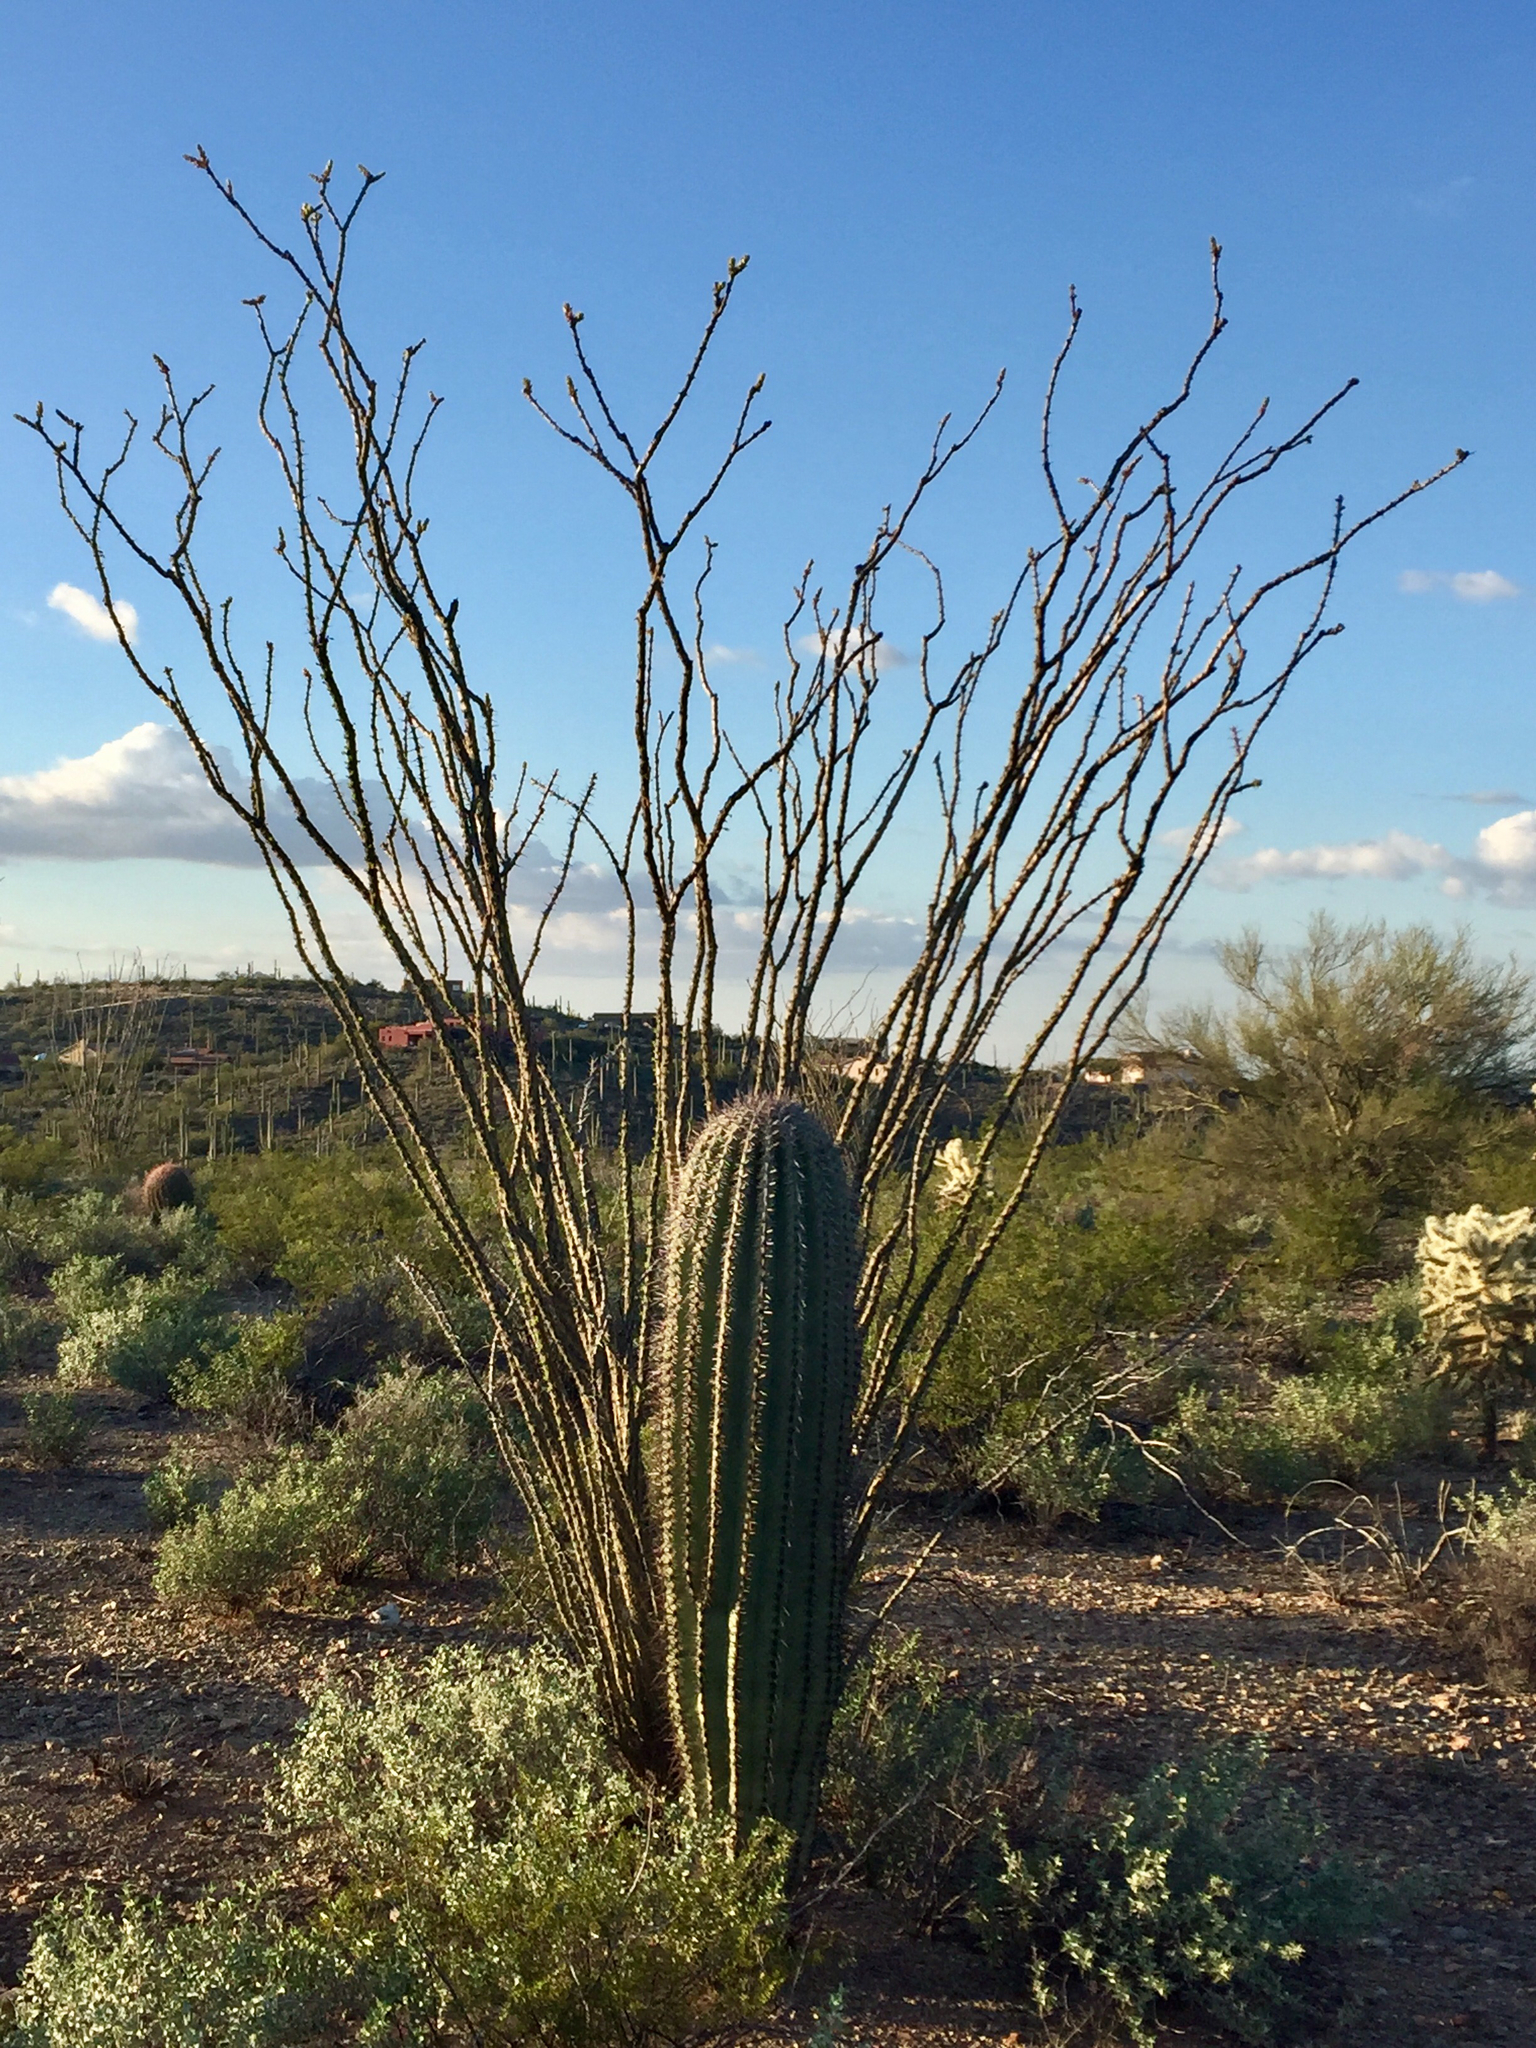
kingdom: Plantae
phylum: Tracheophyta
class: Magnoliopsida
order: Caryophyllales
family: Cactaceae
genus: Carnegiea
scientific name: Carnegiea gigantea
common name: Saguaro
